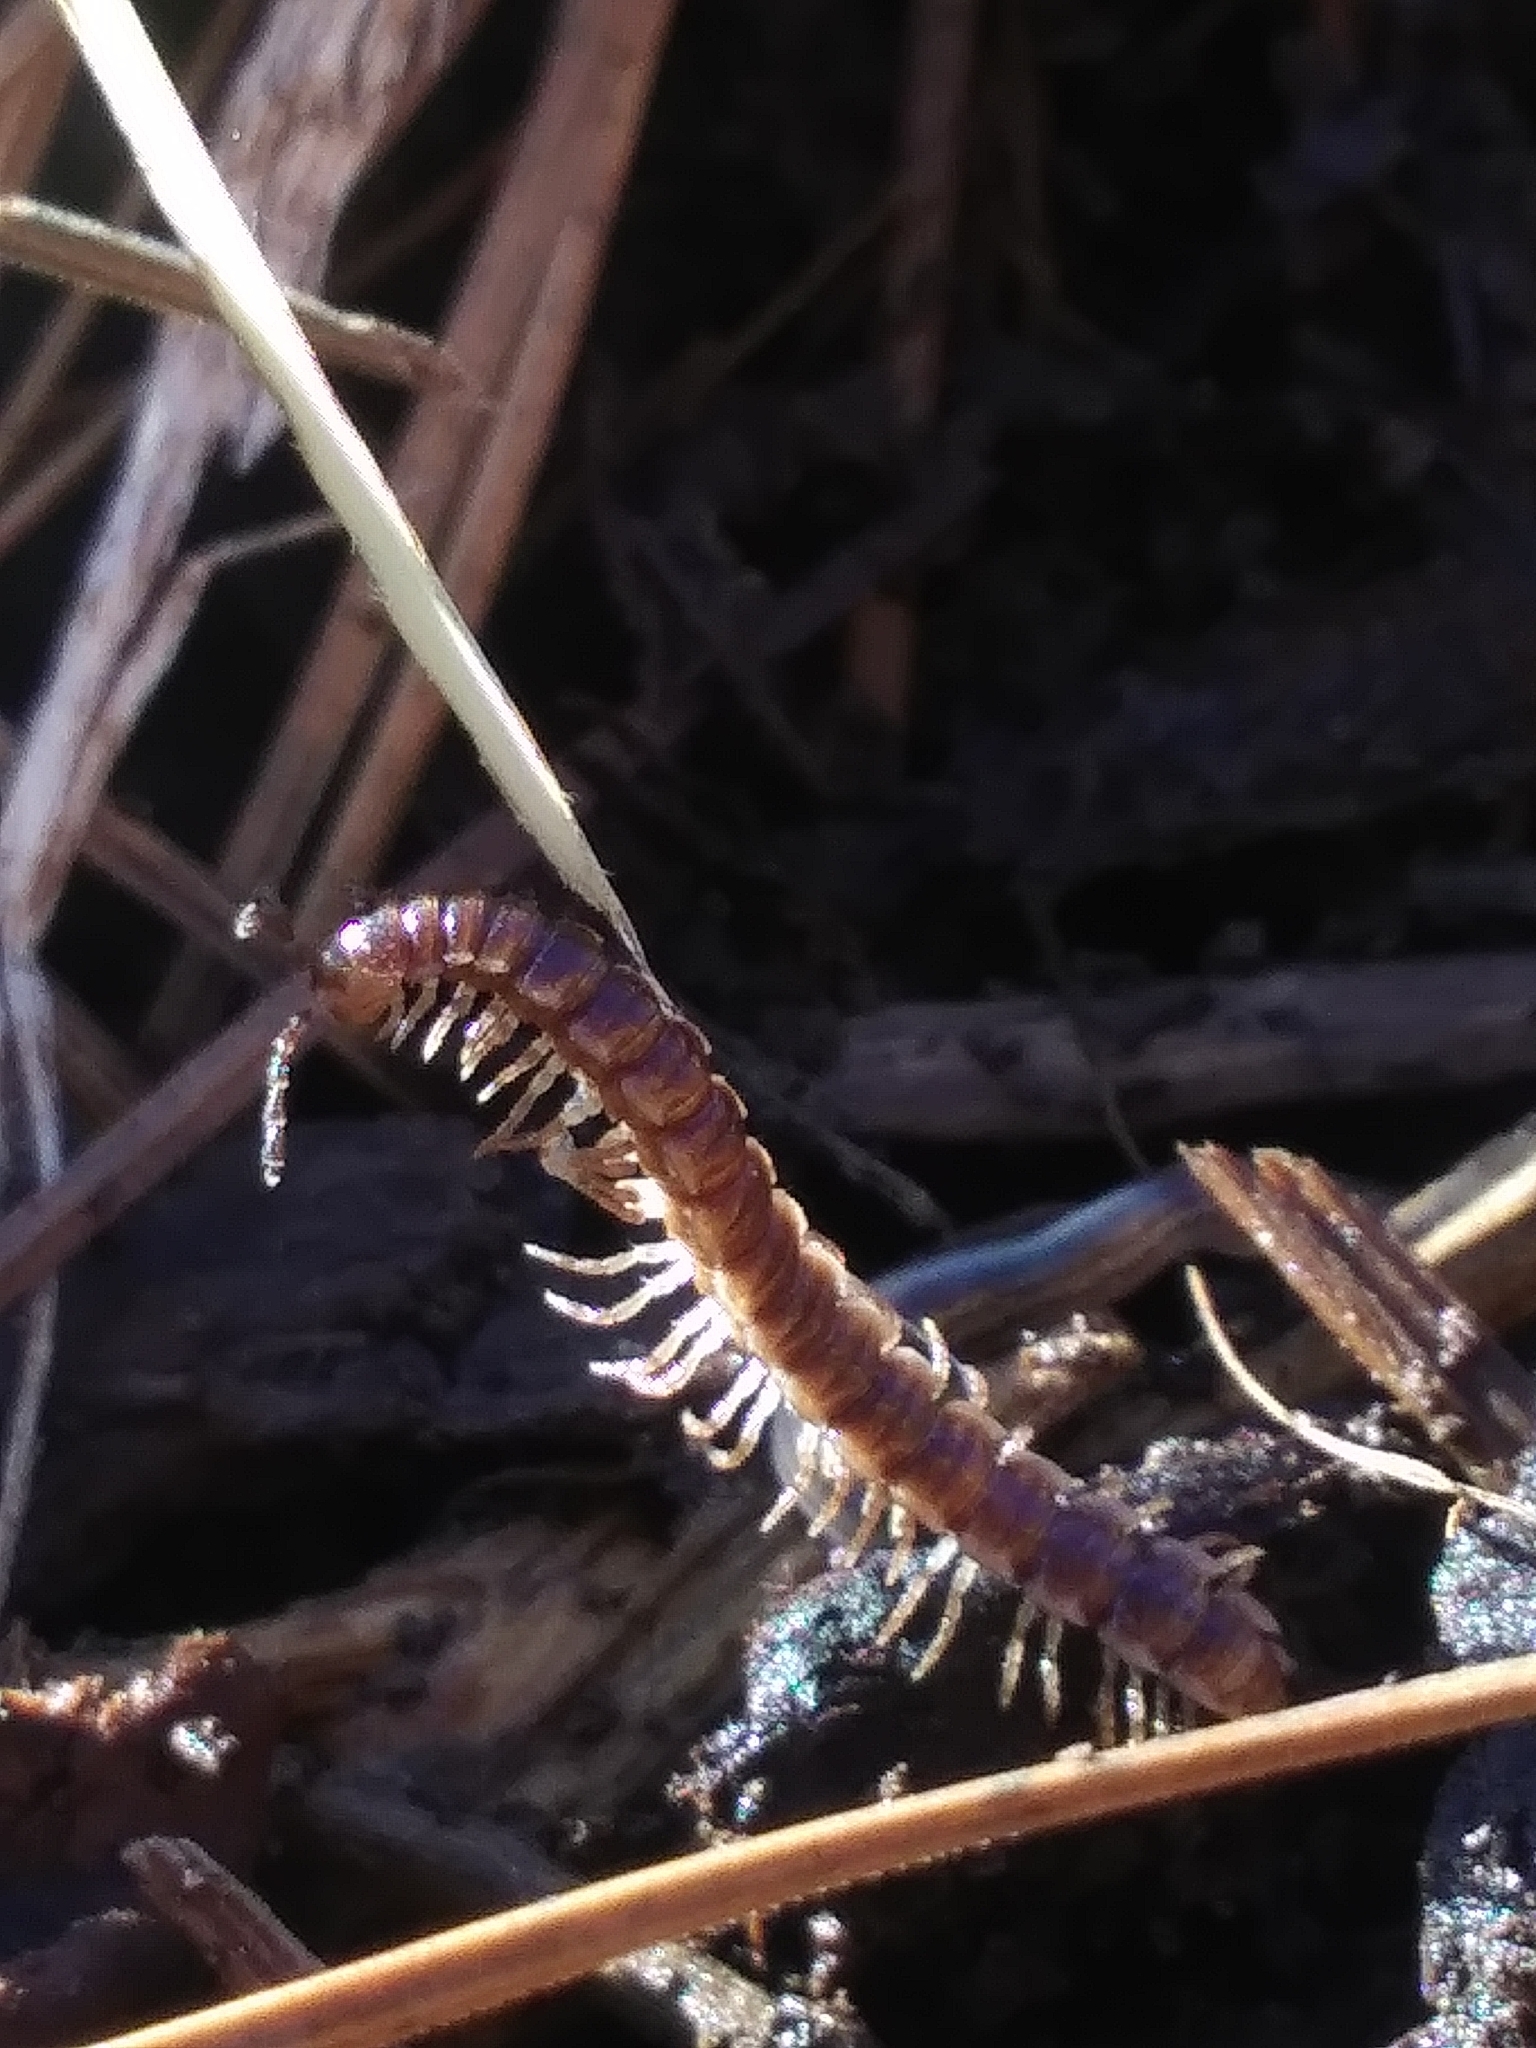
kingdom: Animalia
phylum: Arthropoda
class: Diplopoda
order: Polydesmida
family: Paradoxosomatidae
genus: Oxidus
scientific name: Oxidus gracilis
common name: Greenhouse millipede
